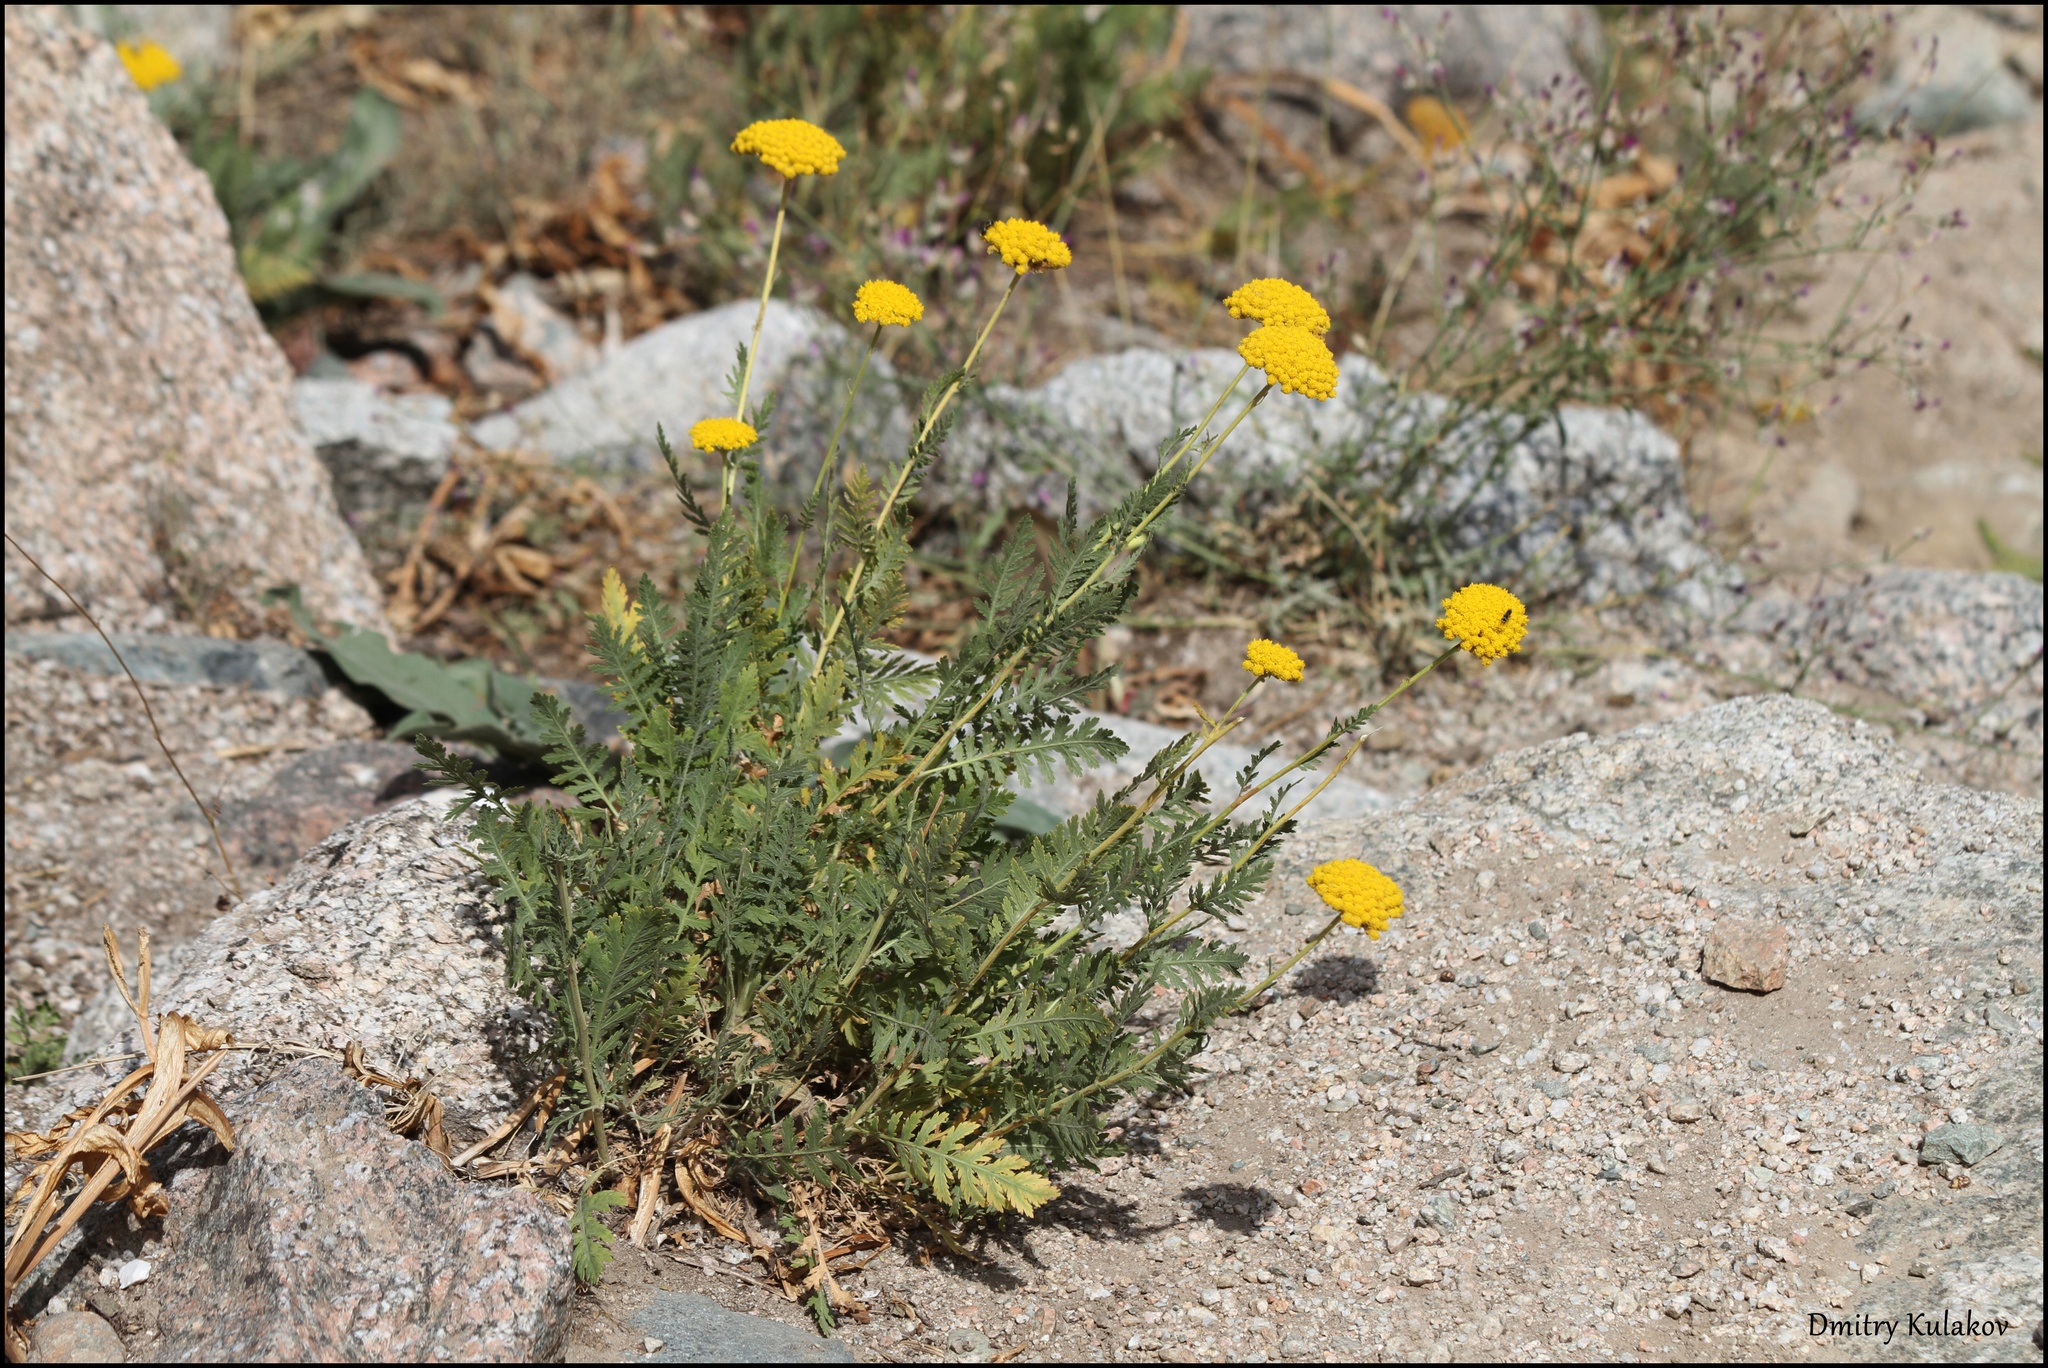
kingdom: Plantae
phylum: Tracheophyta
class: Magnoliopsida
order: Asterales
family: Asteraceae
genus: Achillea
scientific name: Achillea filipendulina
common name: Fernleaf yarrow
